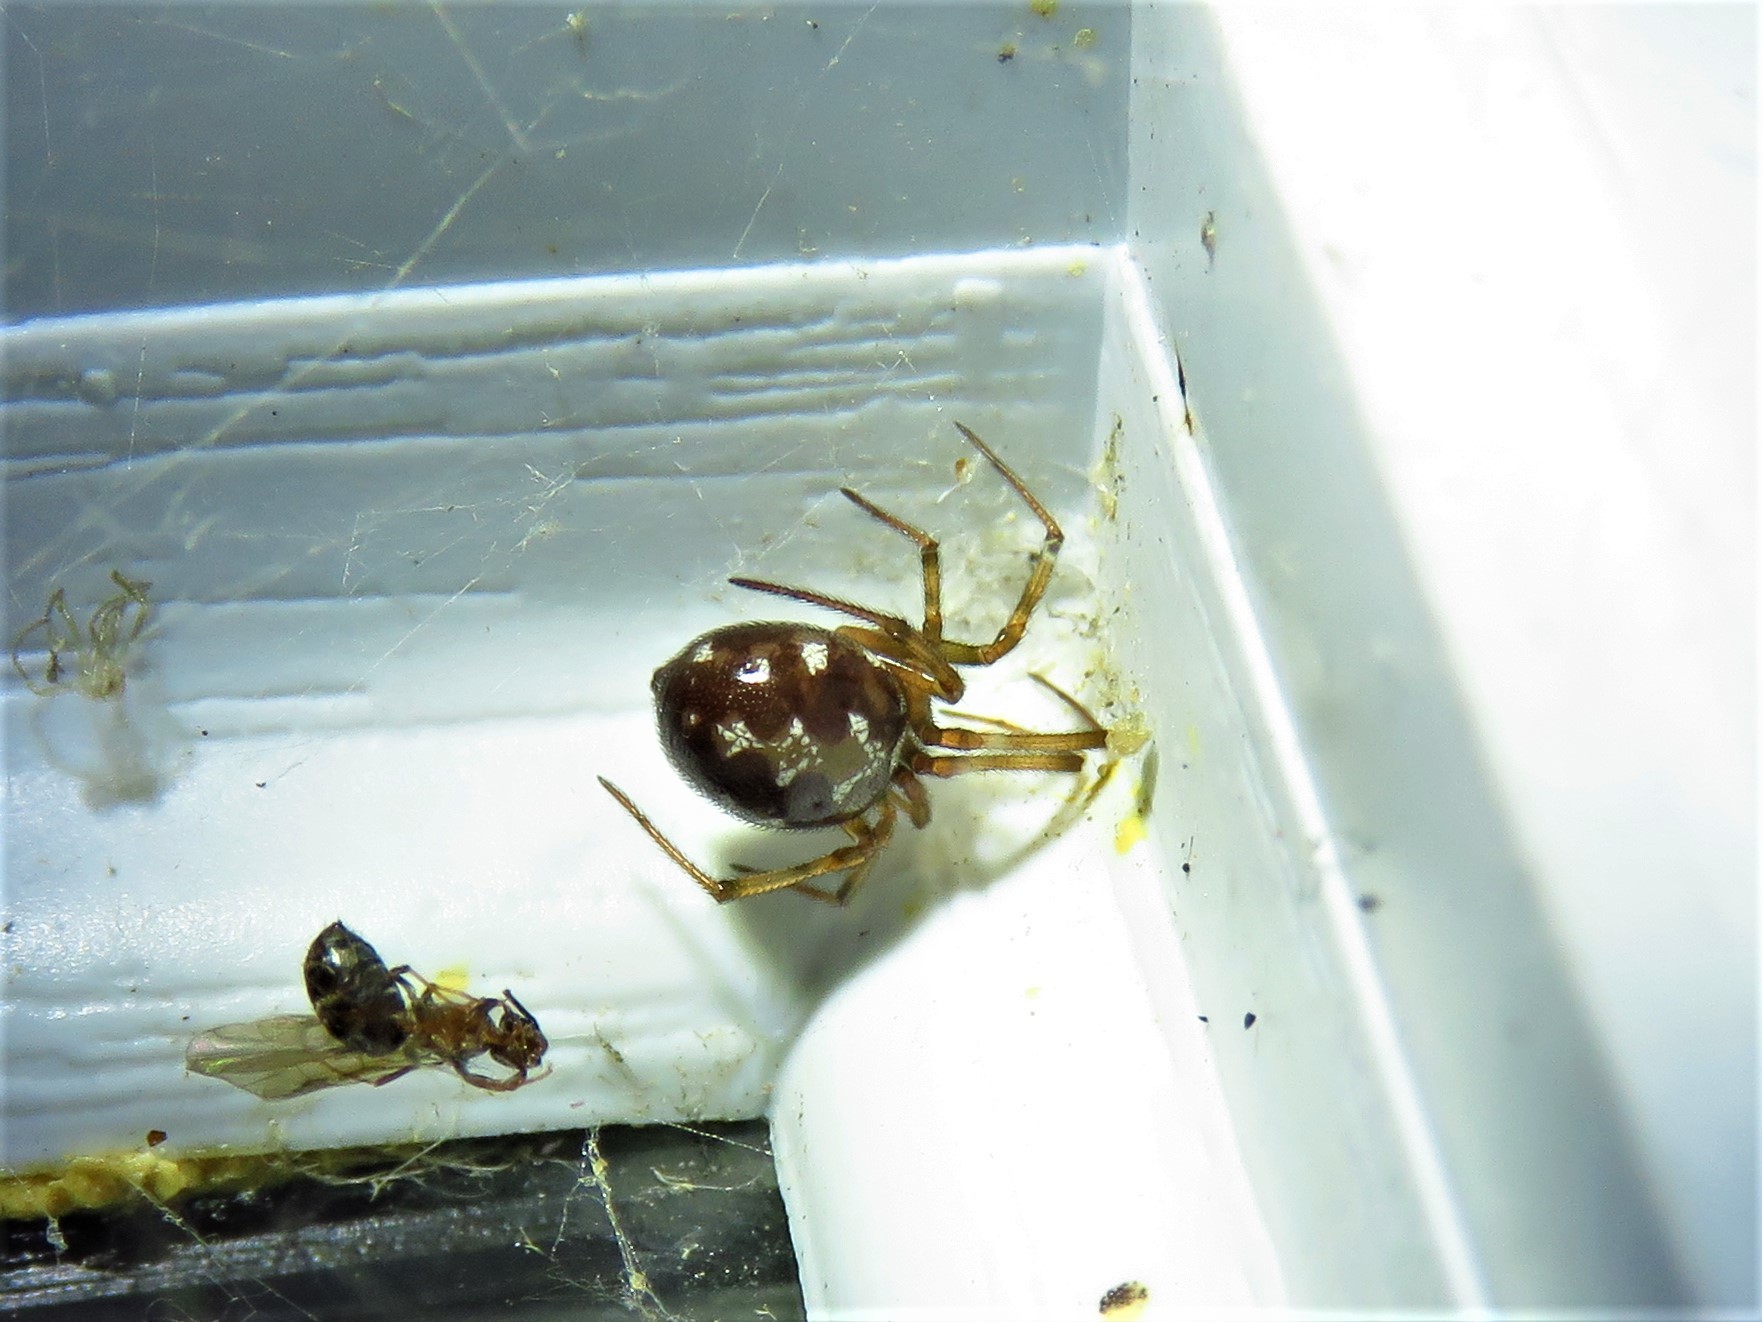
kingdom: Animalia
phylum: Arthropoda
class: Arachnida
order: Araneae
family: Theridiidae
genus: Steatoda
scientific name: Steatoda triangulosa
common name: Triangulate bud spider
